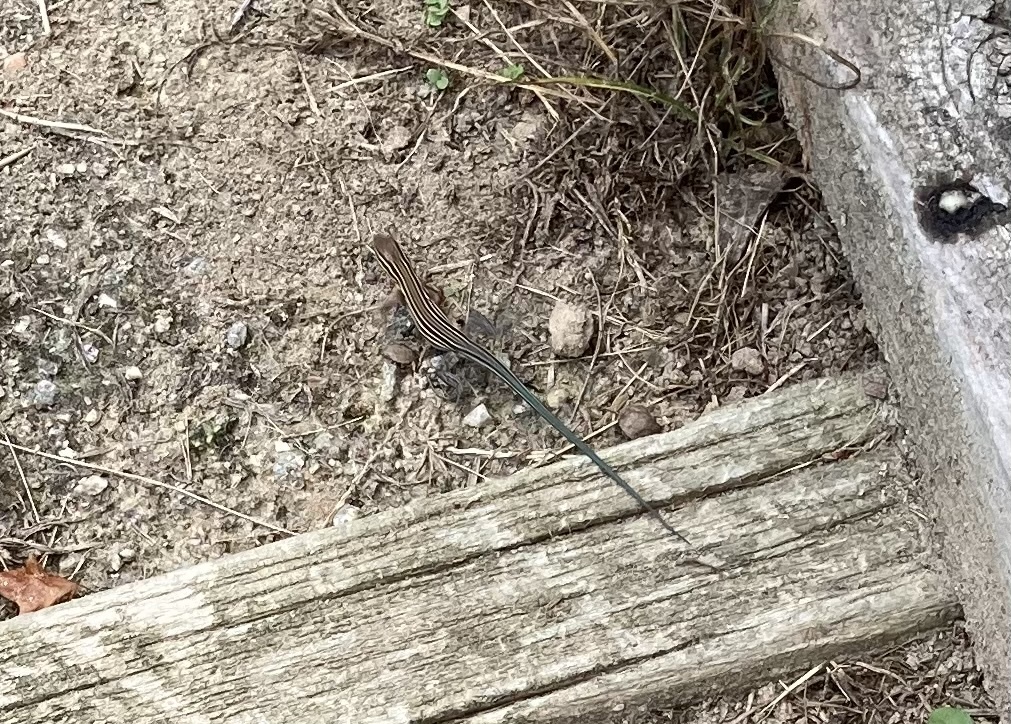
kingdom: Animalia
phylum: Chordata
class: Squamata
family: Teiidae
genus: Aspidoscelis
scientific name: Aspidoscelis sexlineatus
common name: Six-lined racerunner
